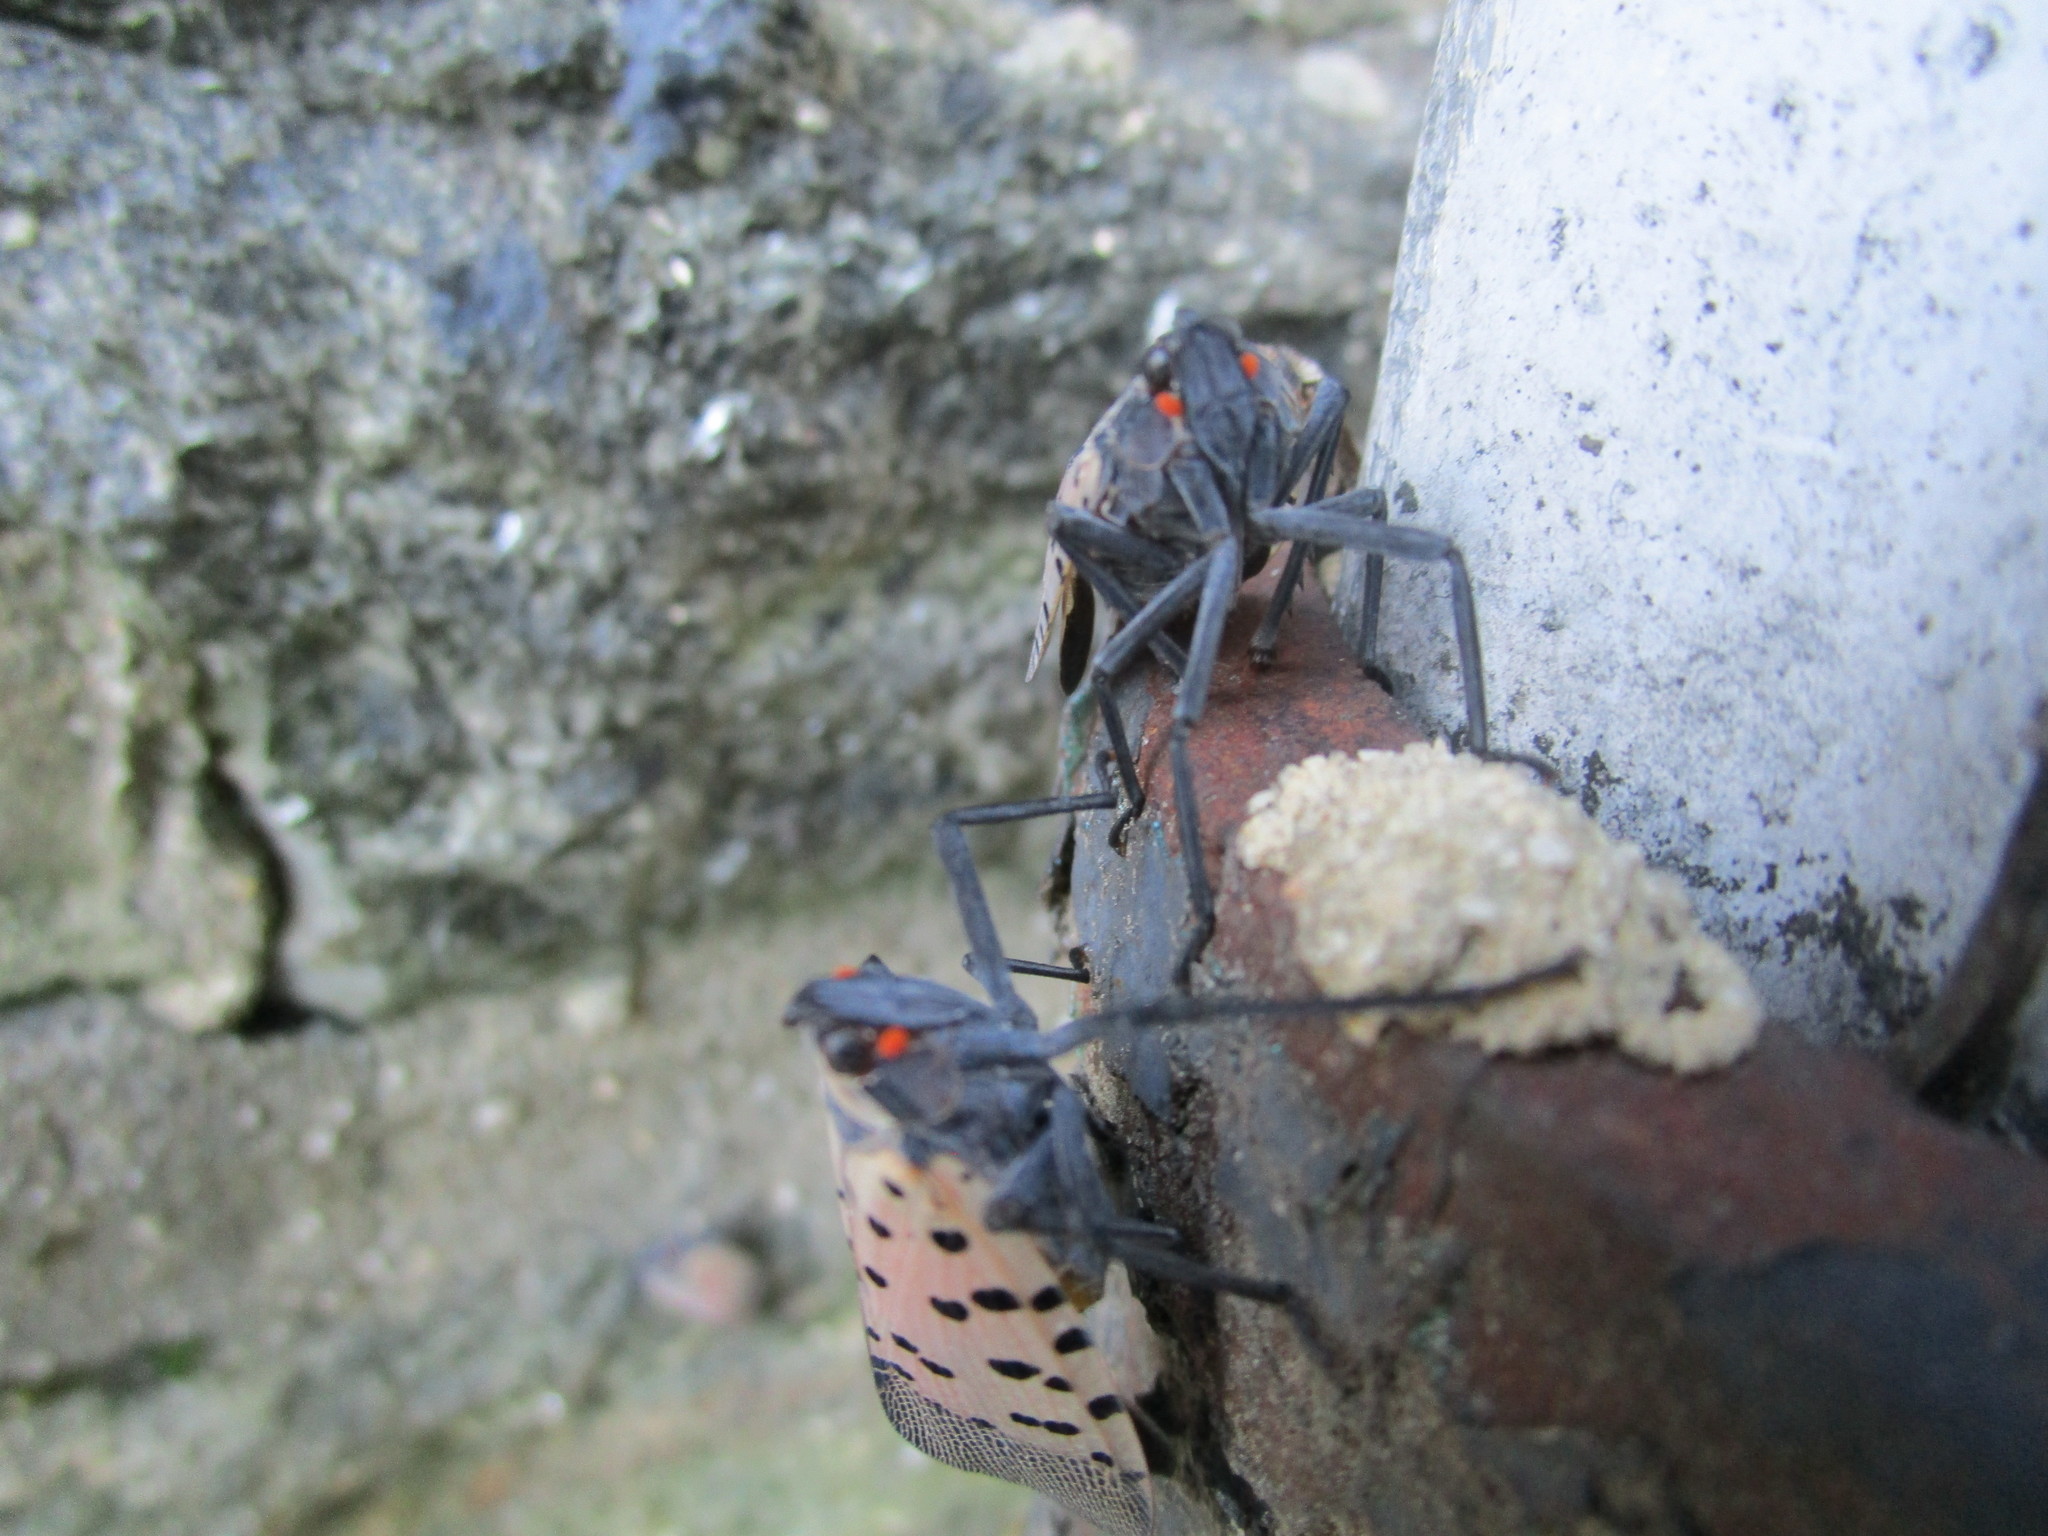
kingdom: Animalia
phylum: Arthropoda
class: Insecta
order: Hemiptera
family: Fulgoridae
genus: Lycorma
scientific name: Lycorma delicatula
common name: Spotted lanternfly
